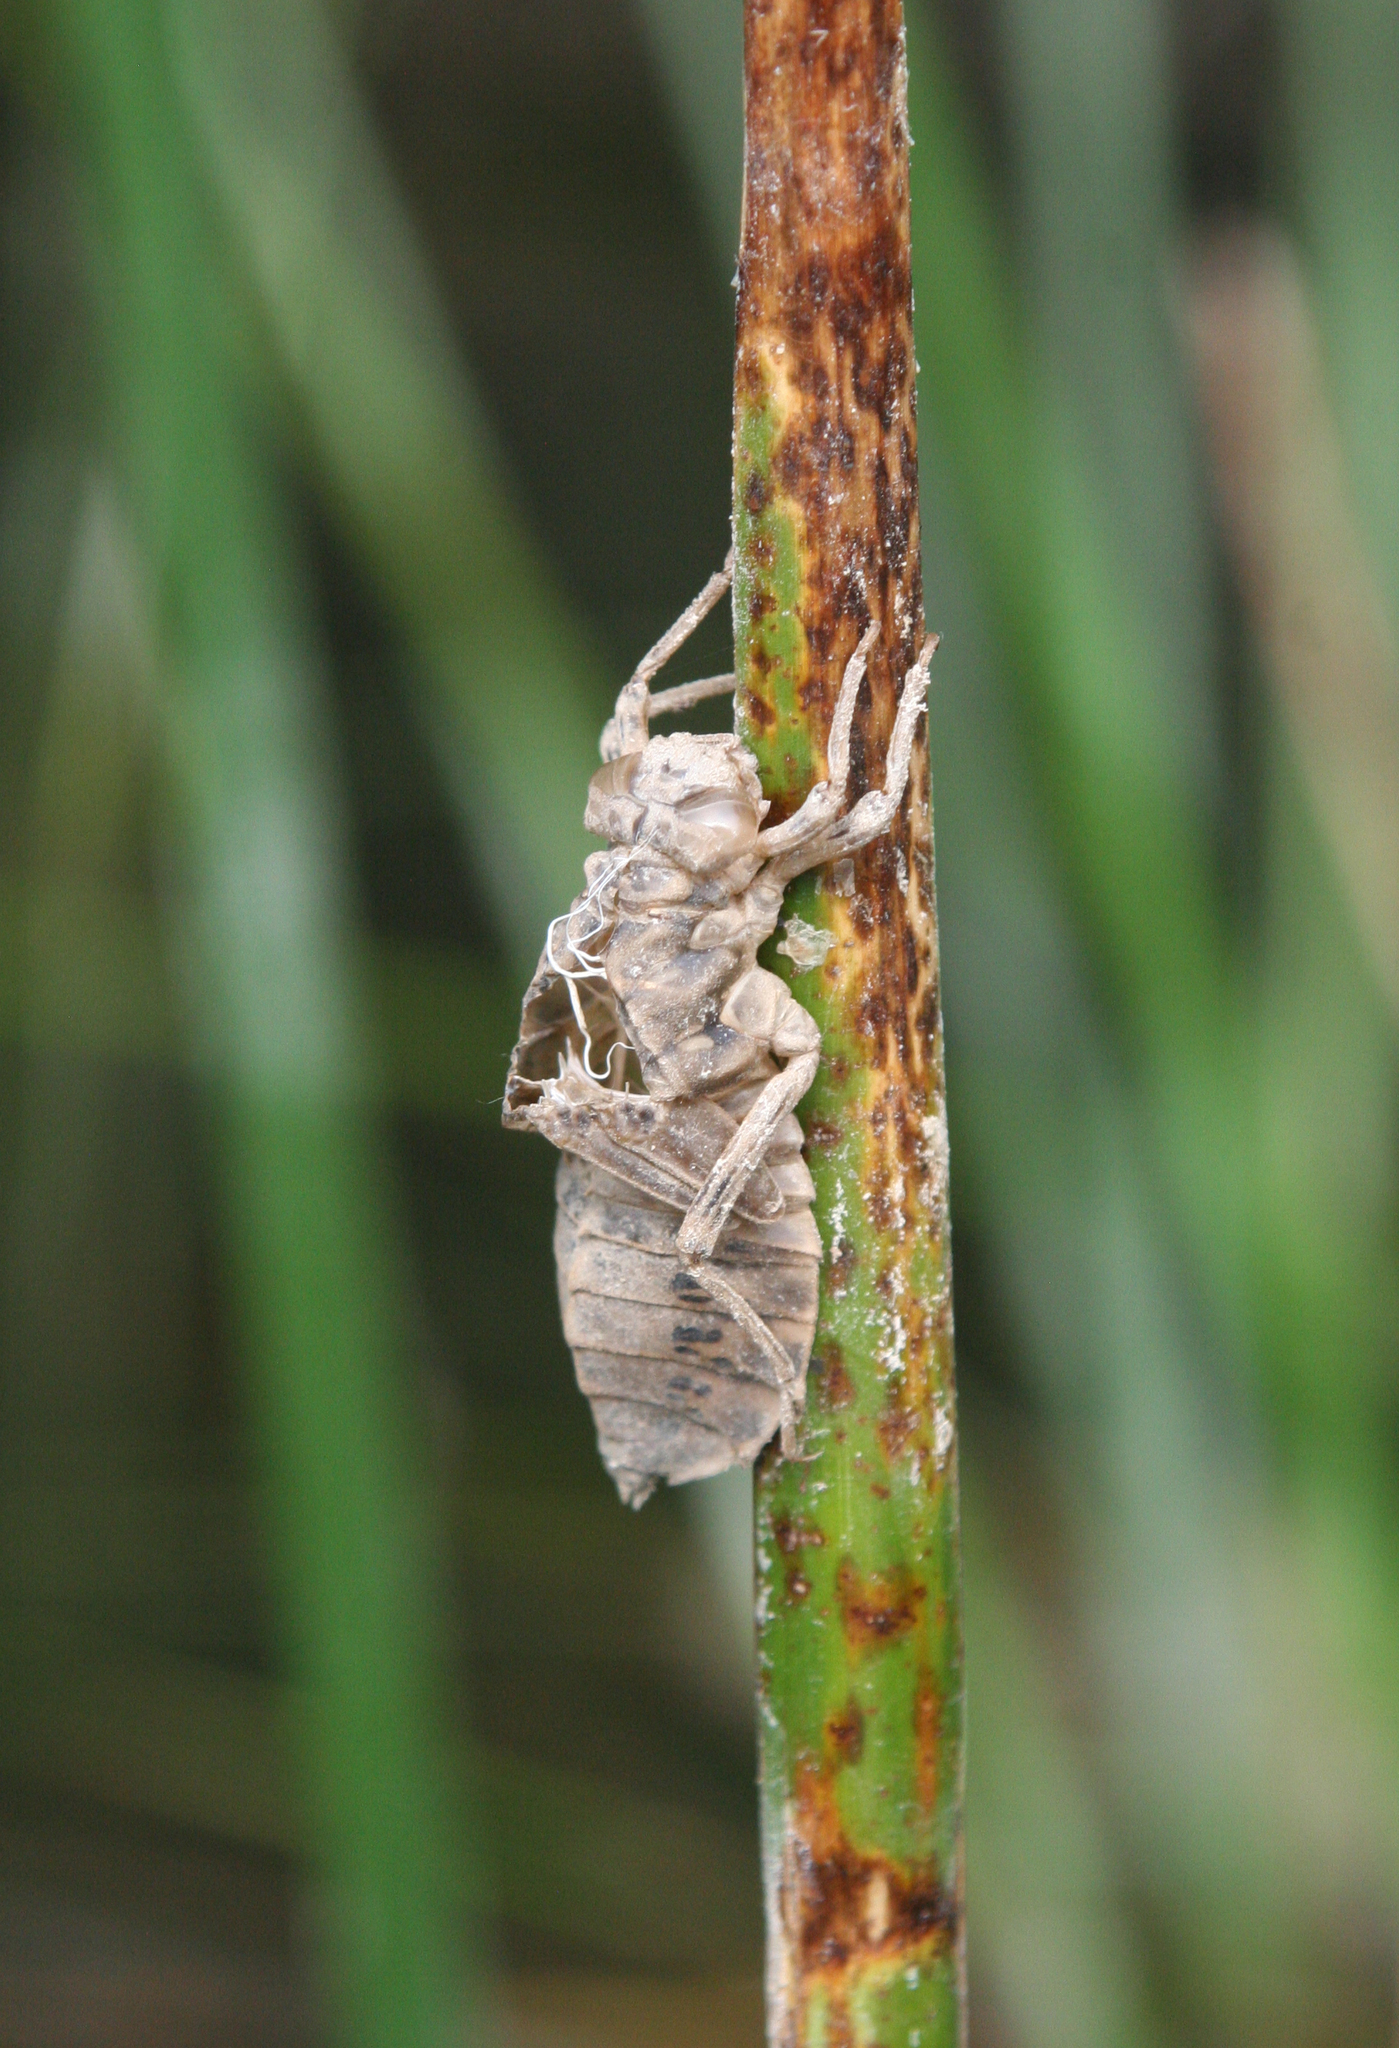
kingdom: Animalia
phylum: Arthropoda
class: Insecta
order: Odonata
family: Gomphidae
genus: Lindenia
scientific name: Lindenia tetraphylla
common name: Bladetail
